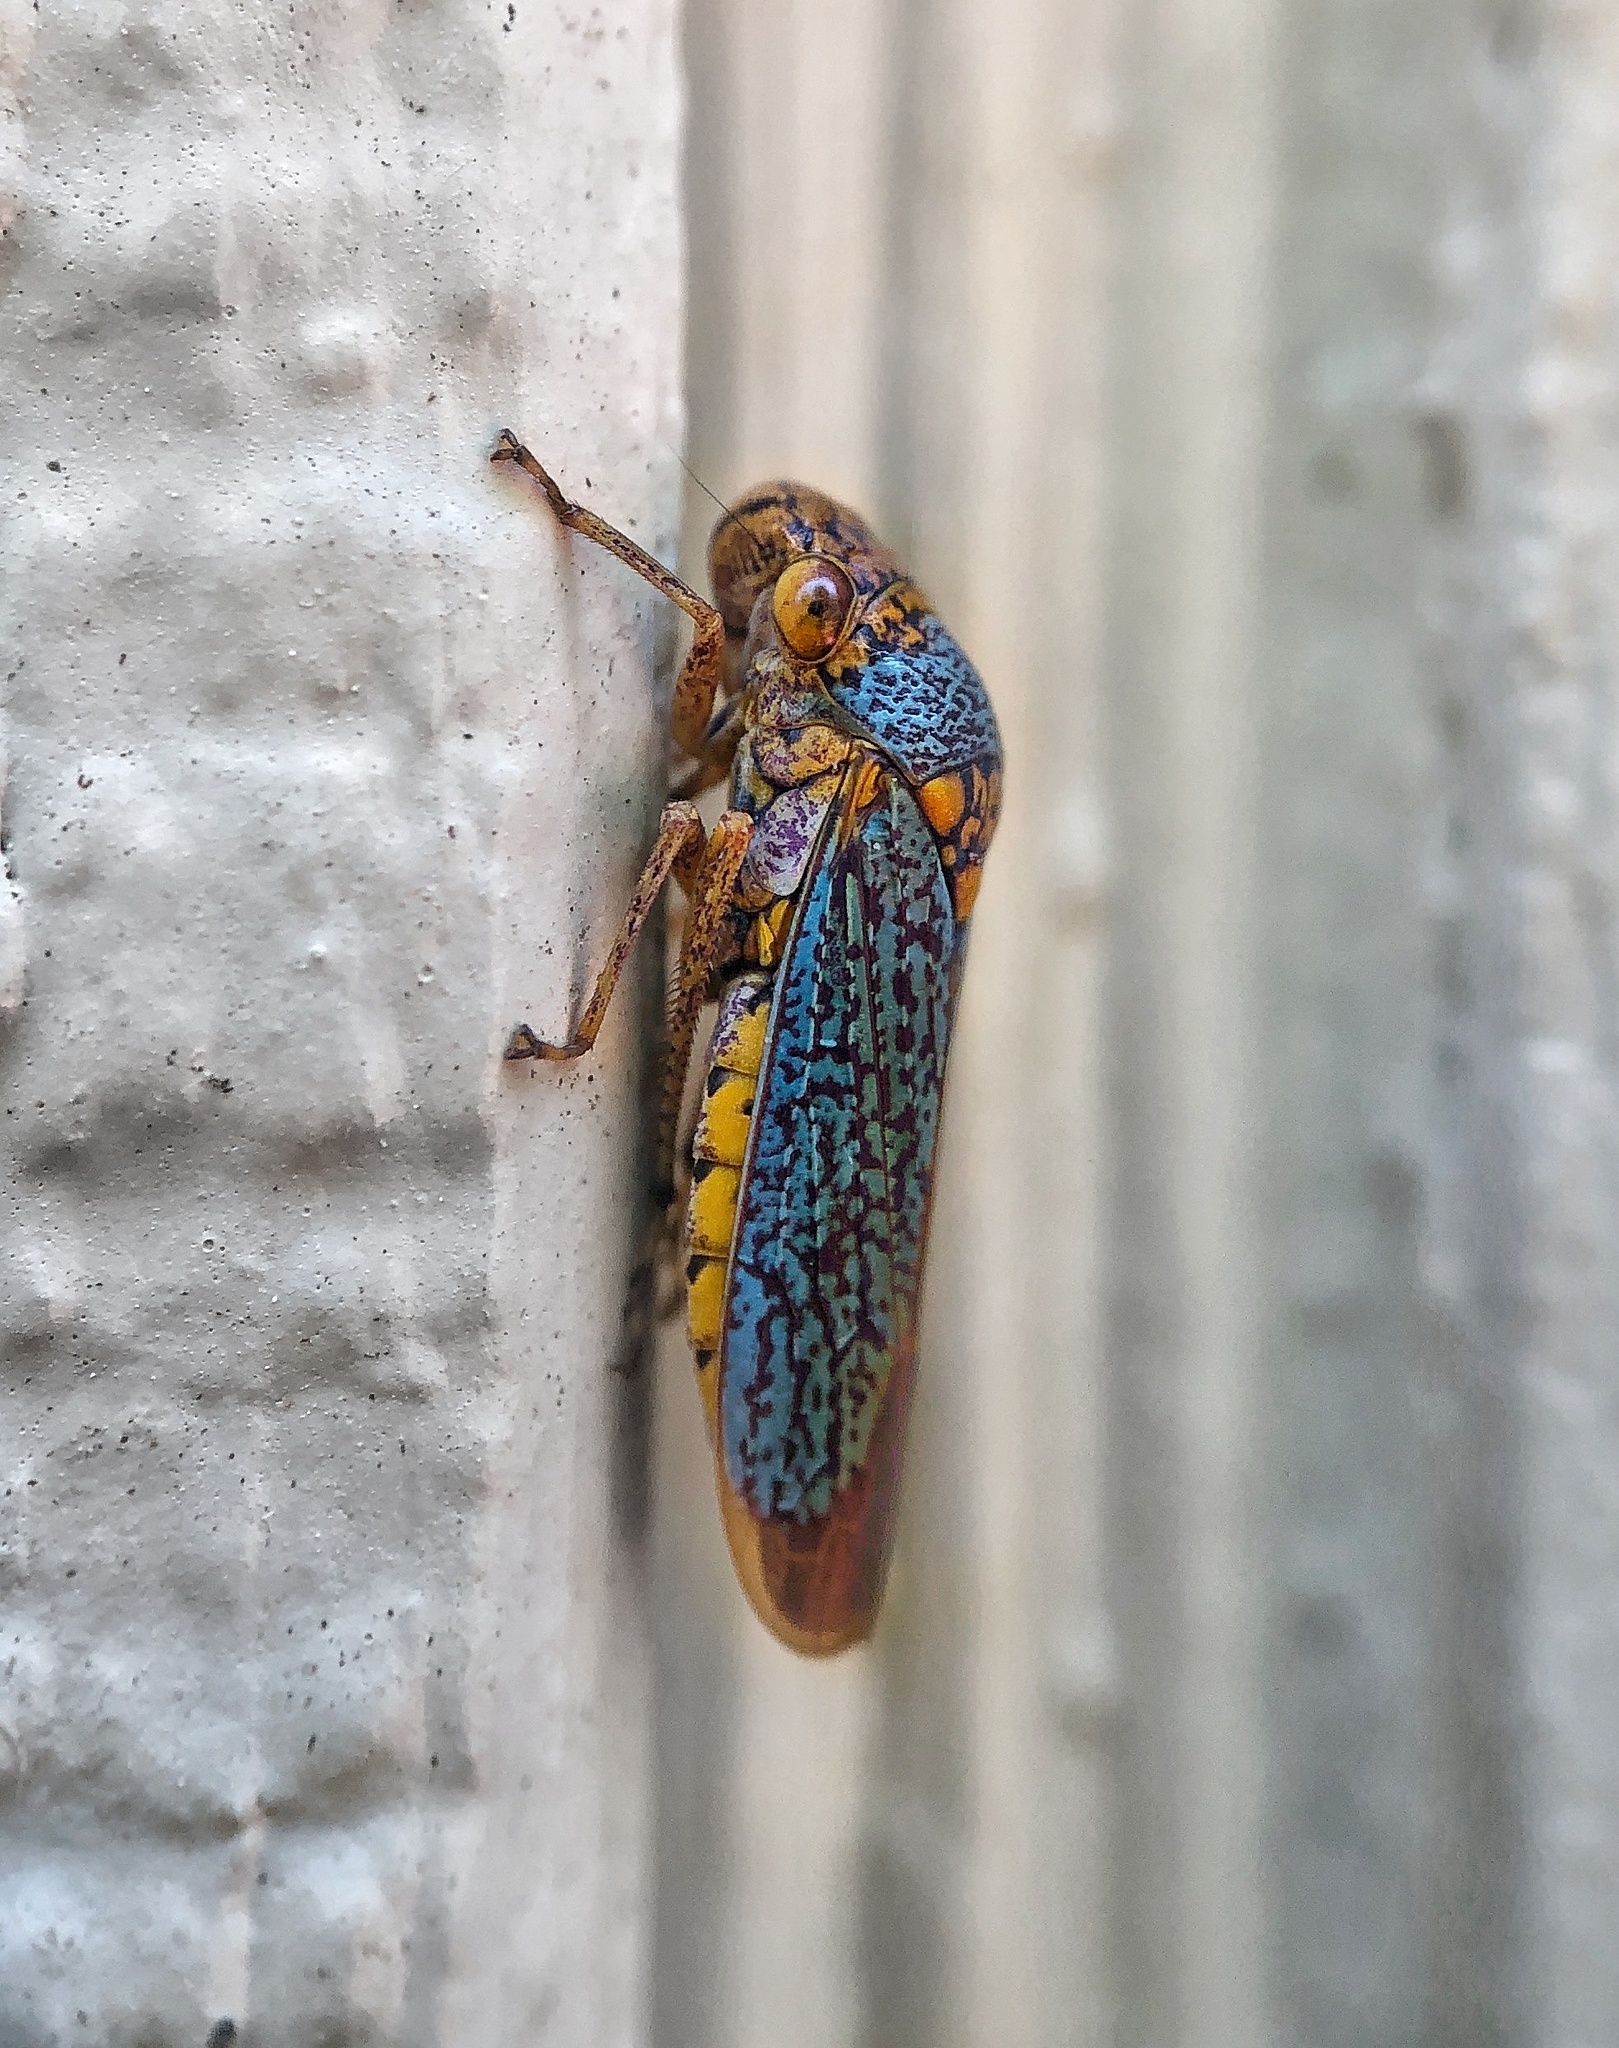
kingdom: Animalia
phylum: Arthropoda
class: Insecta
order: Hemiptera
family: Cicadellidae
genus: Oncometopia
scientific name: Oncometopia orbona
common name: Broad-headed sharpshooter
